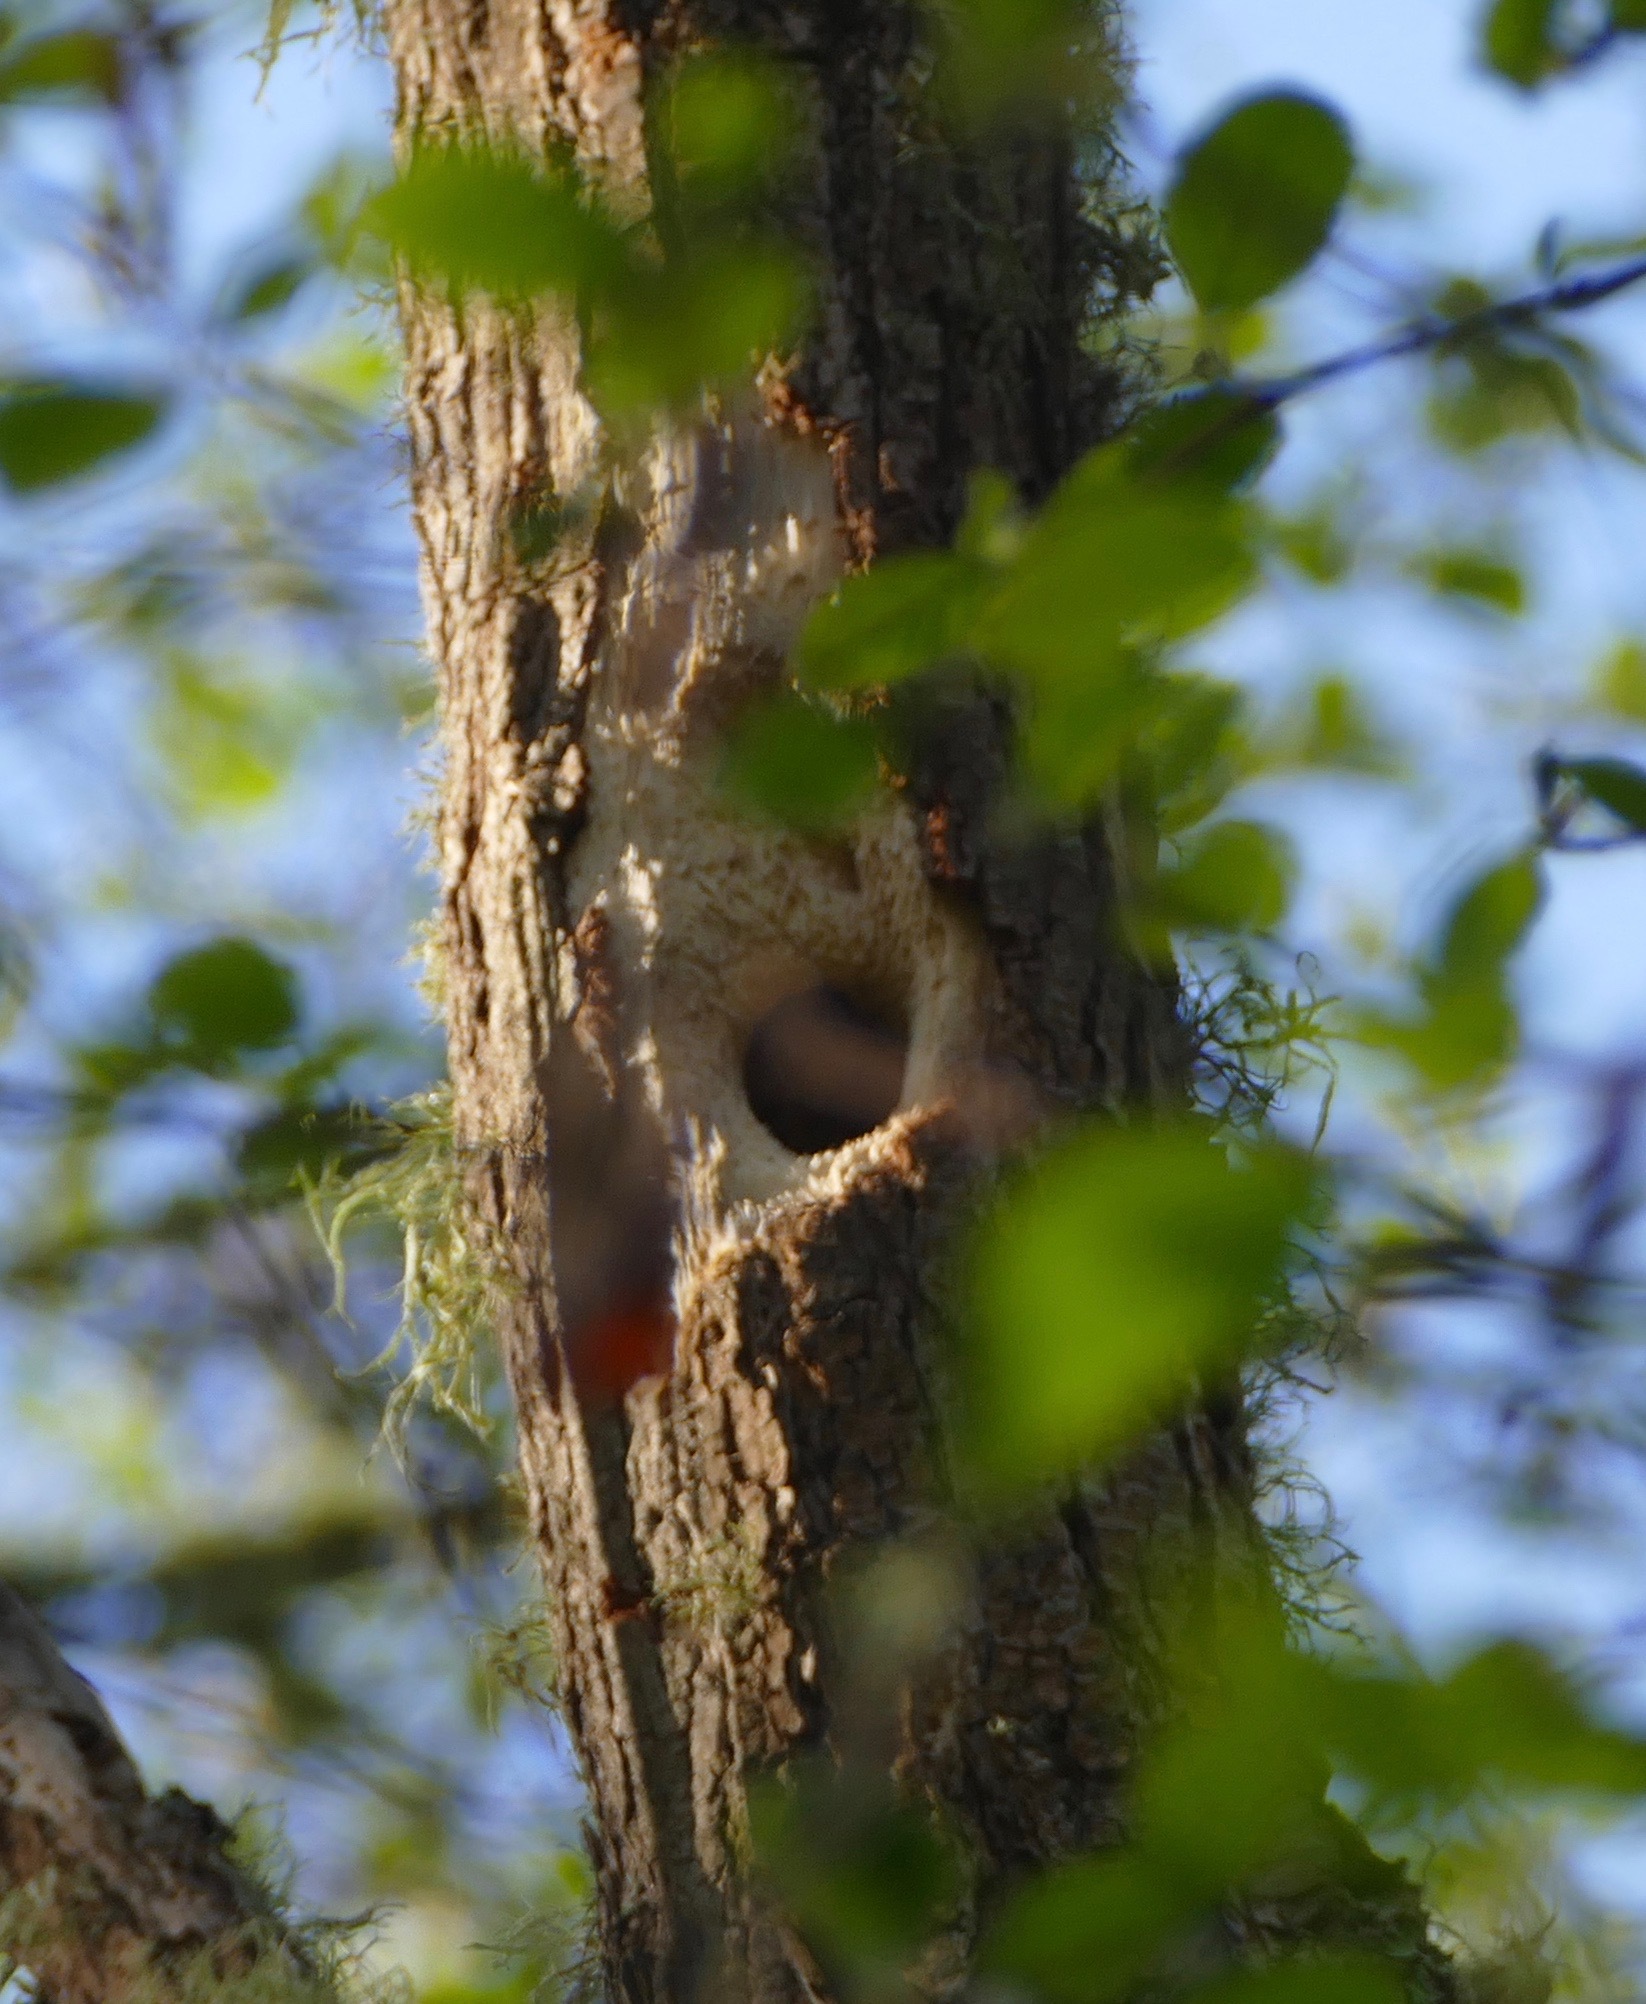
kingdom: Animalia
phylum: Chordata
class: Aves
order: Passeriformes
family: Sittidae
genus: Sitta
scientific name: Sitta canadensis
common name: Red-breasted nuthatch
